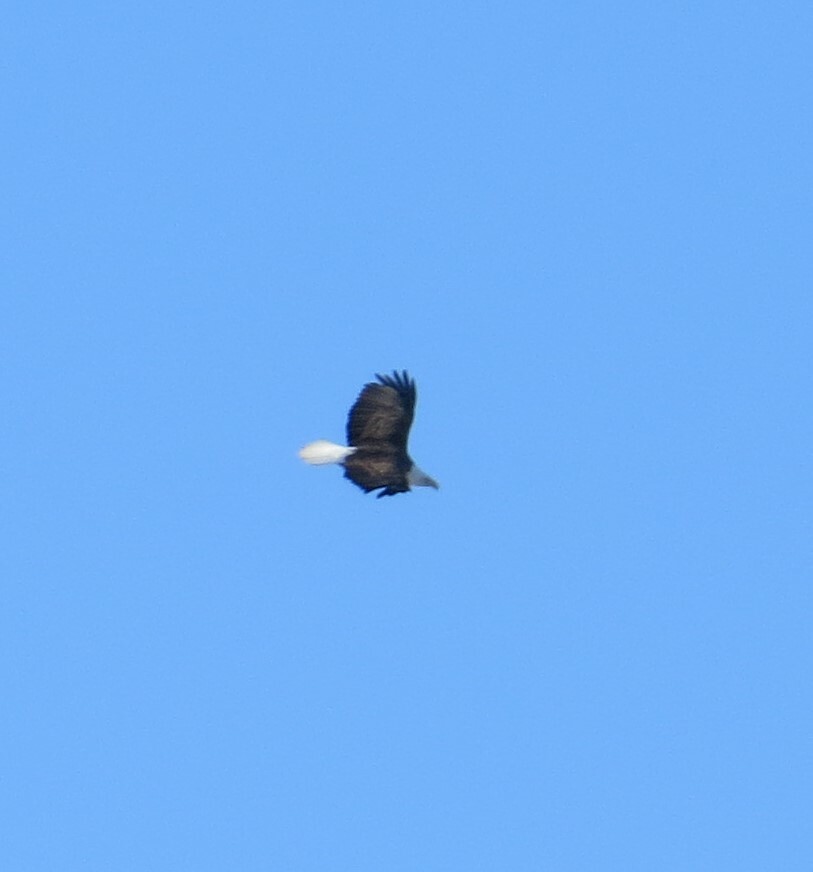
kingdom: Animalia
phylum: Chordata
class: Aves
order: Accipitriformes
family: Accipitridae
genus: Haliaeetus
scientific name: Haliaeetus leucocephalus
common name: Bald eagle
